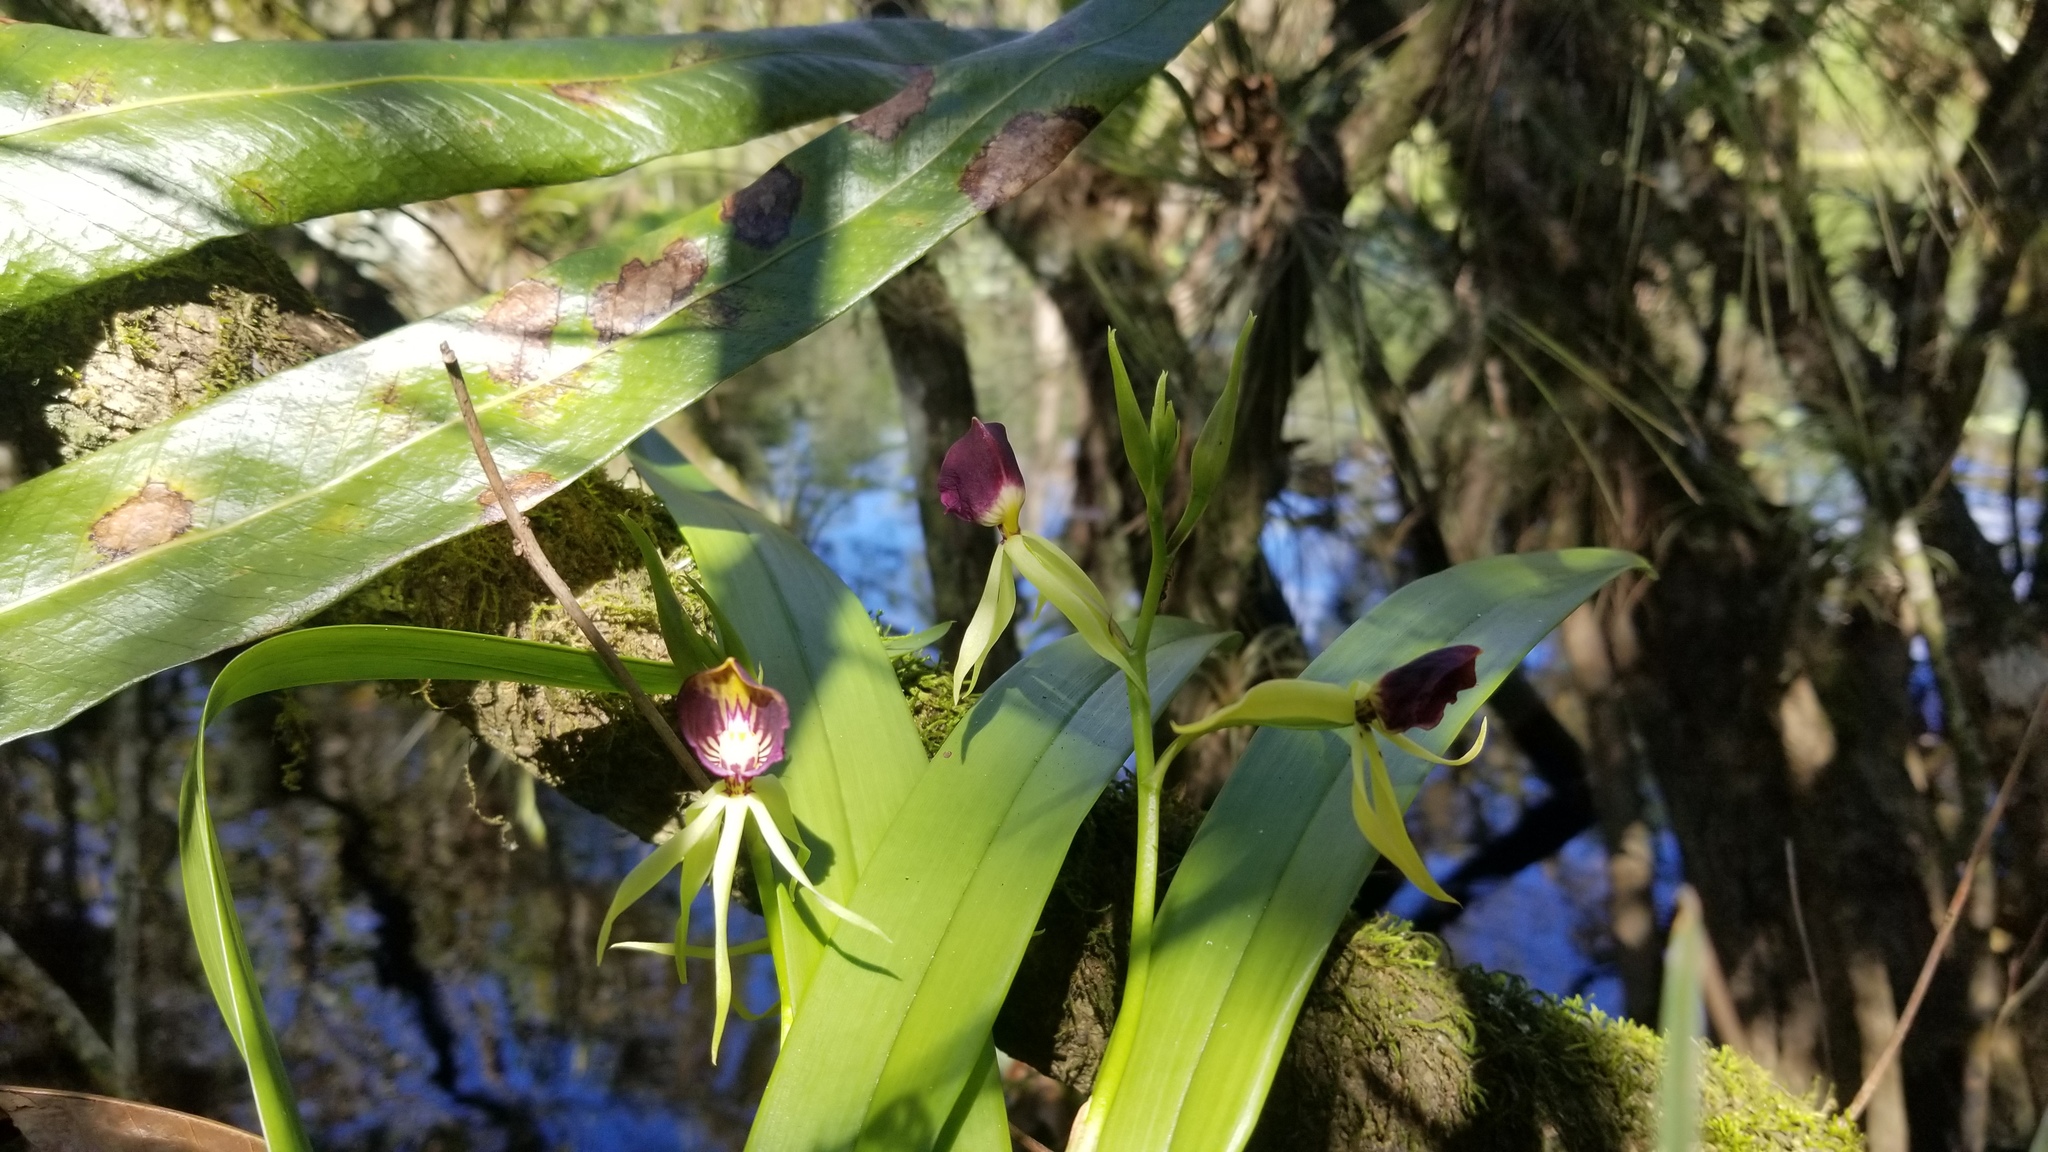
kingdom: Plantae
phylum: Tracheophyta
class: Liliopsida
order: Asparagales
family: Orchidaceae
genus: Prosthechea
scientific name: Prosthechea cochleata
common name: Clamshell orchid
